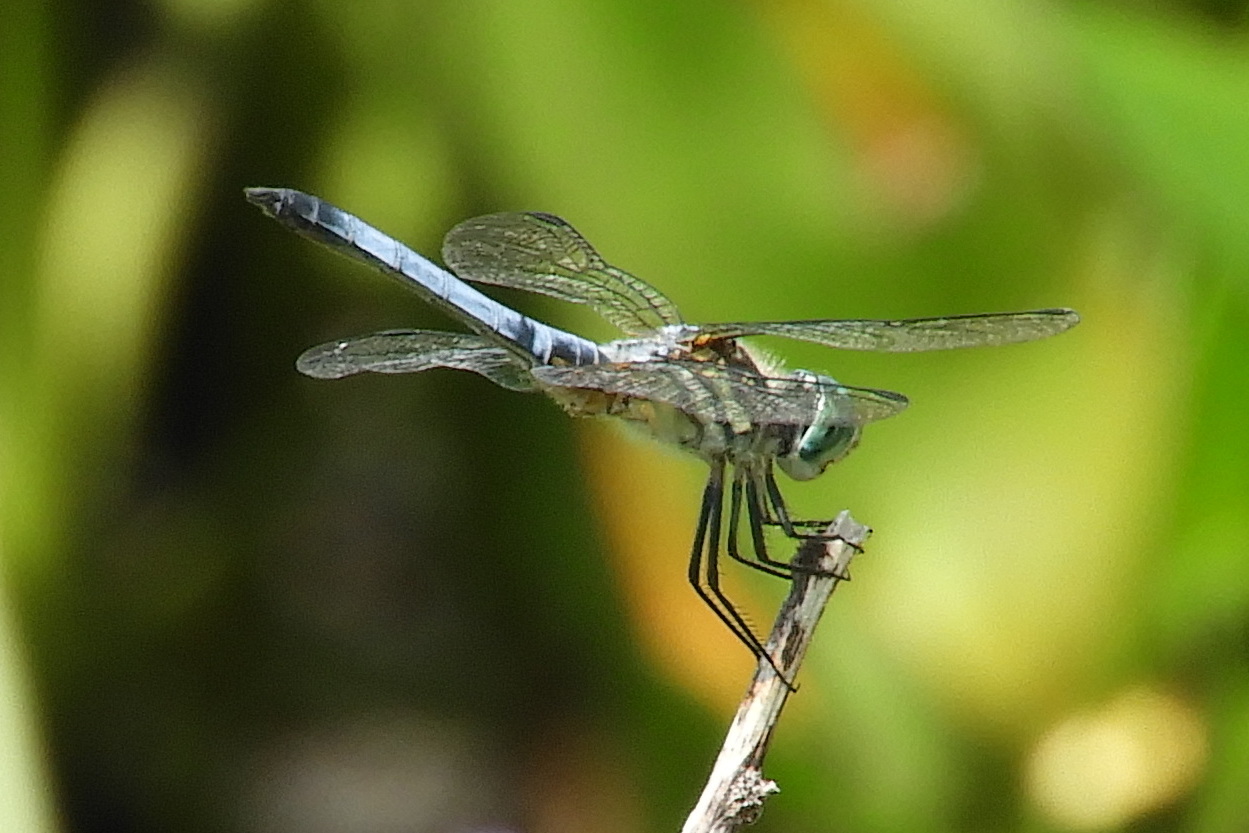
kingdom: Animalia
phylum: Arthropoda
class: Insecta
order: Odonata
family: Libellulidae
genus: Pachydiplax
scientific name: Pachydiplax longipennis
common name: Blue dasher
